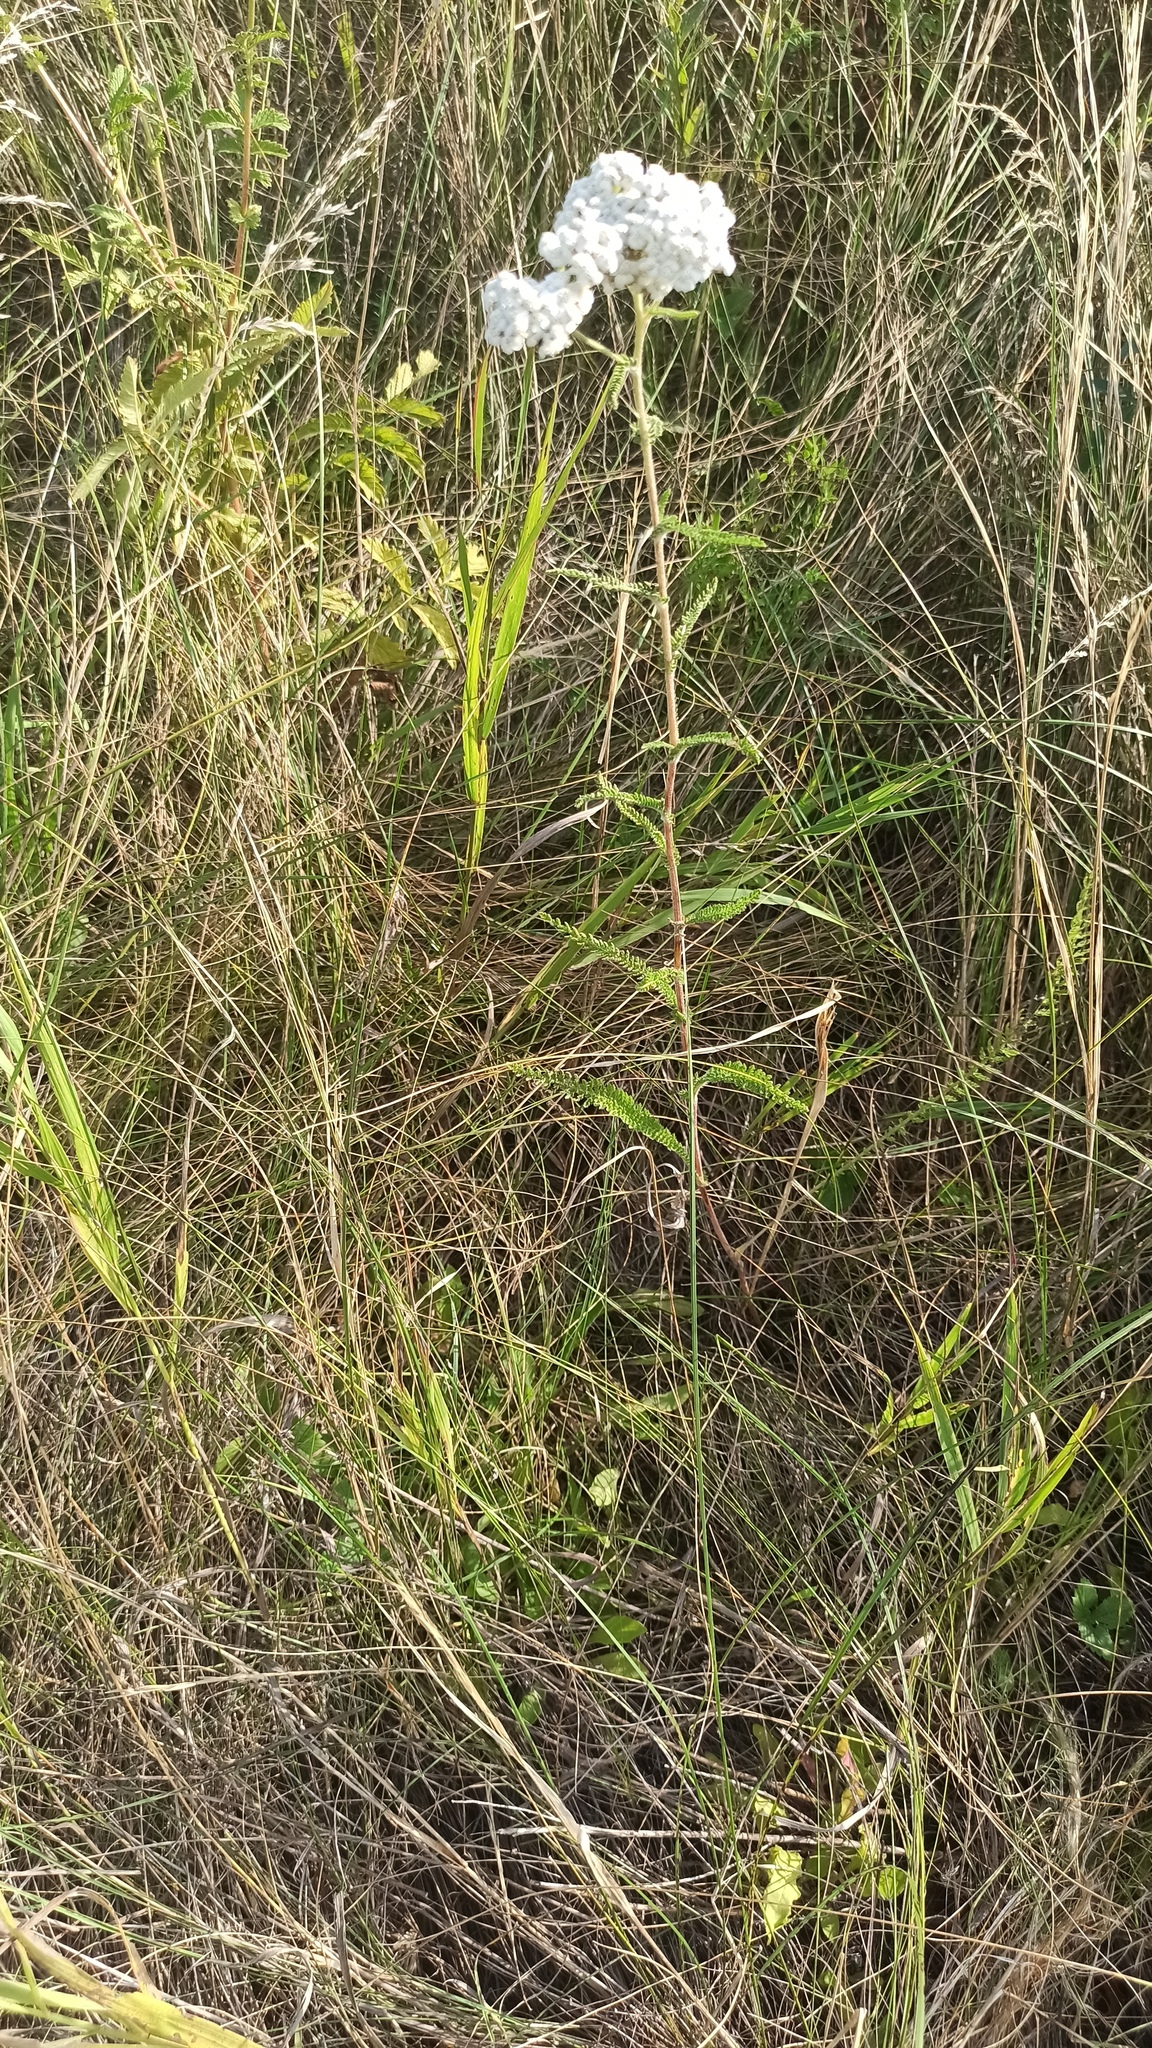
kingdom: Plantae
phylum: Tracheophyta
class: Magnoliopsida
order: Asterales
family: Asteraceae
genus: Achillea
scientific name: Achillea millefolium
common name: Yarrow
